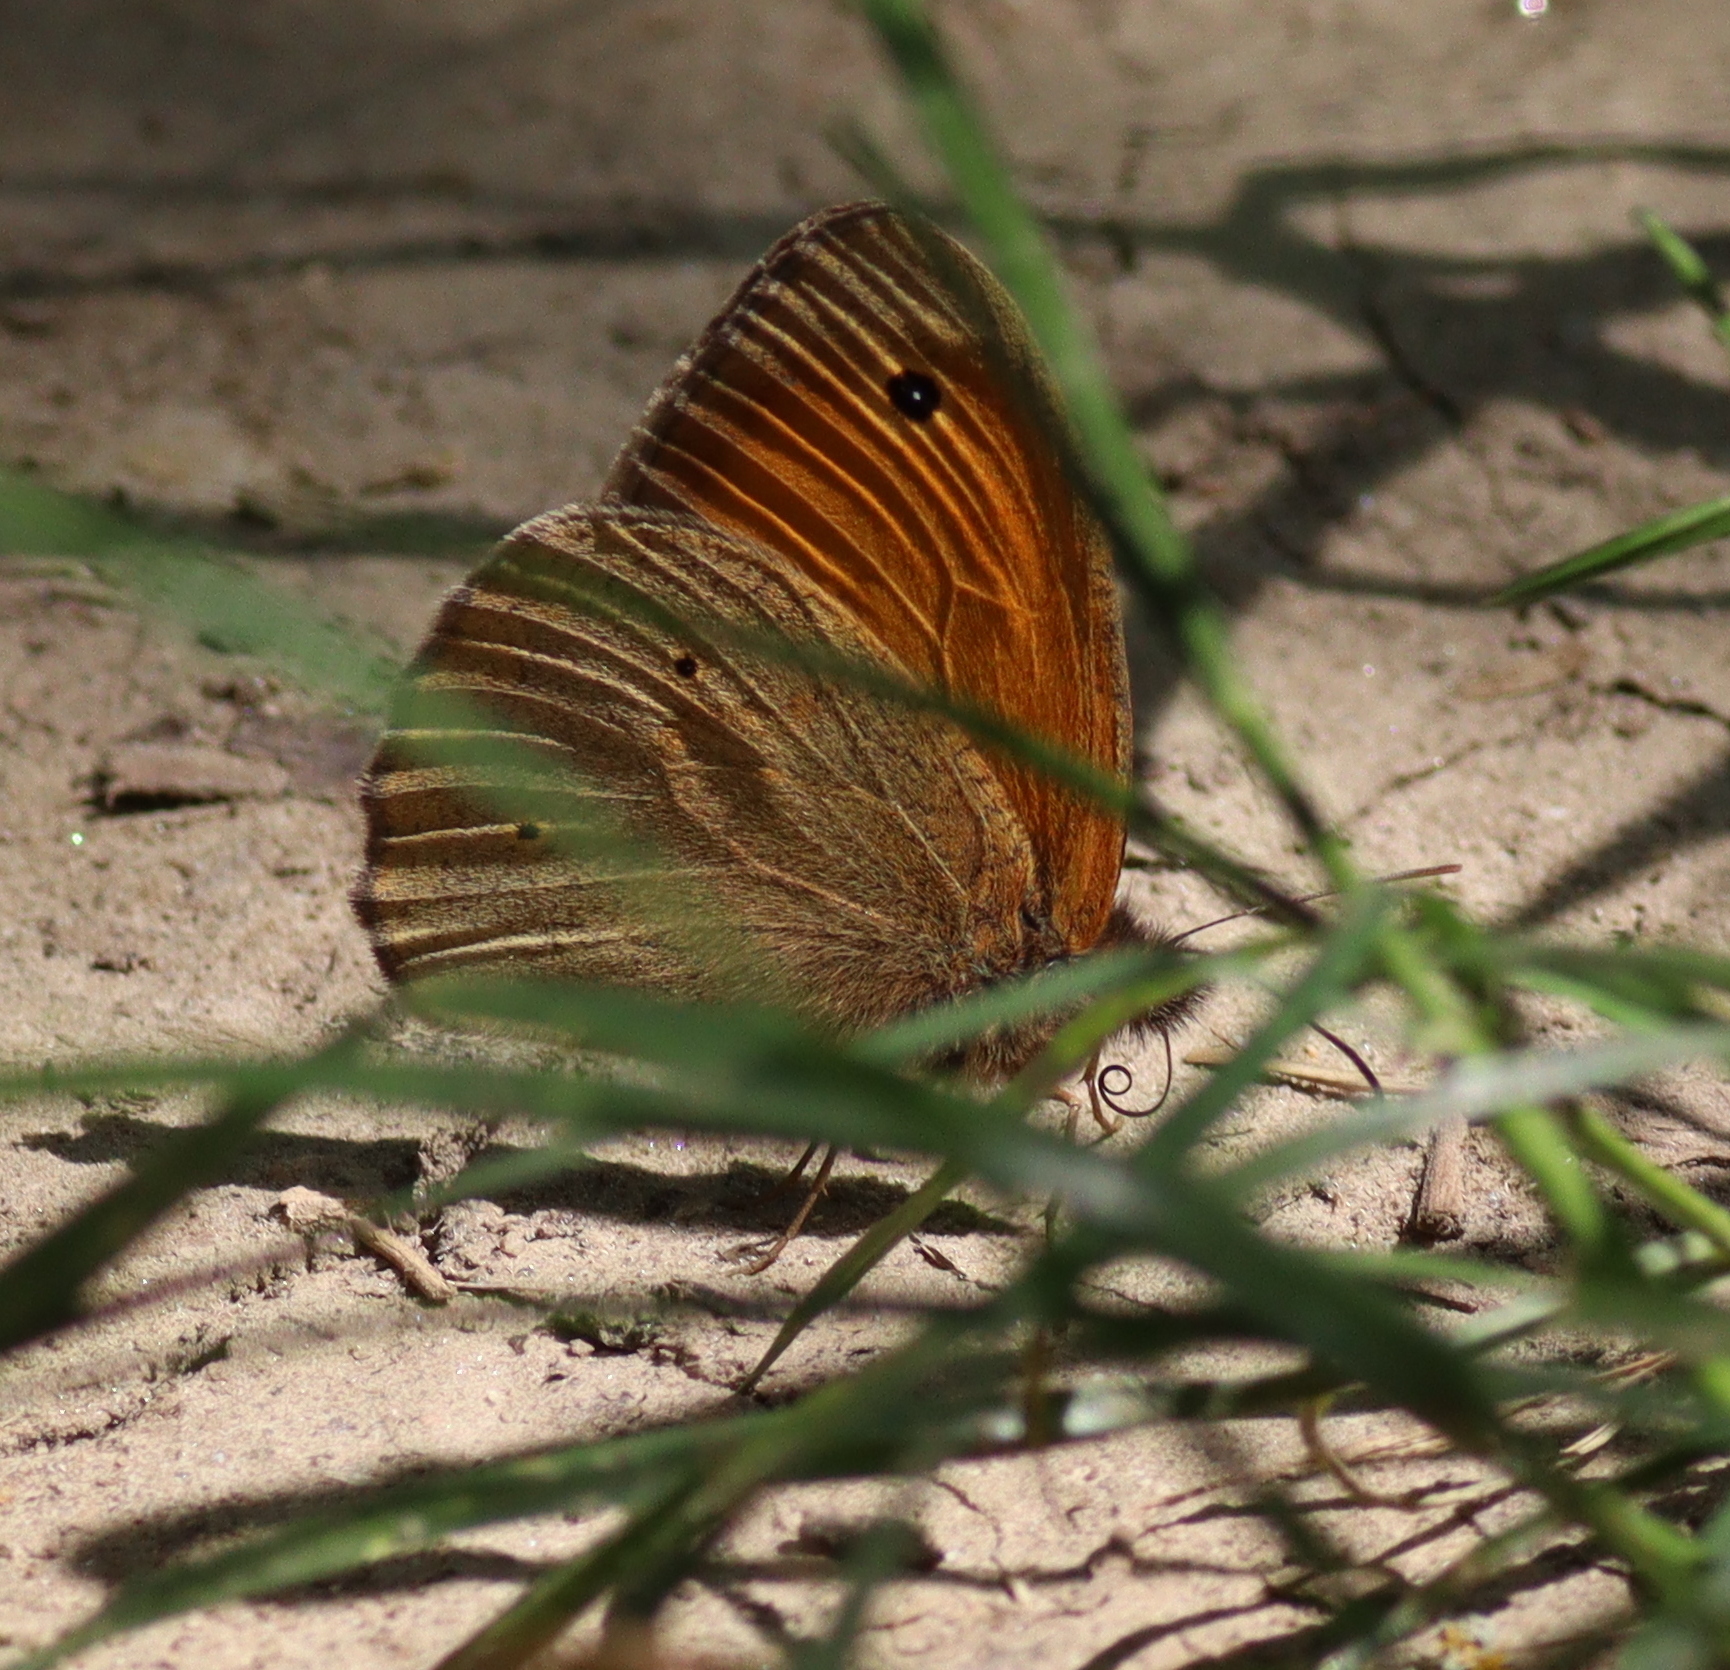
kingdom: Animalia
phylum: Arthropoda
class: Insecta
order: Lepidoptera
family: Nymphalidae
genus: Maniola
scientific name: Maniola jurtina
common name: Meadow brown
